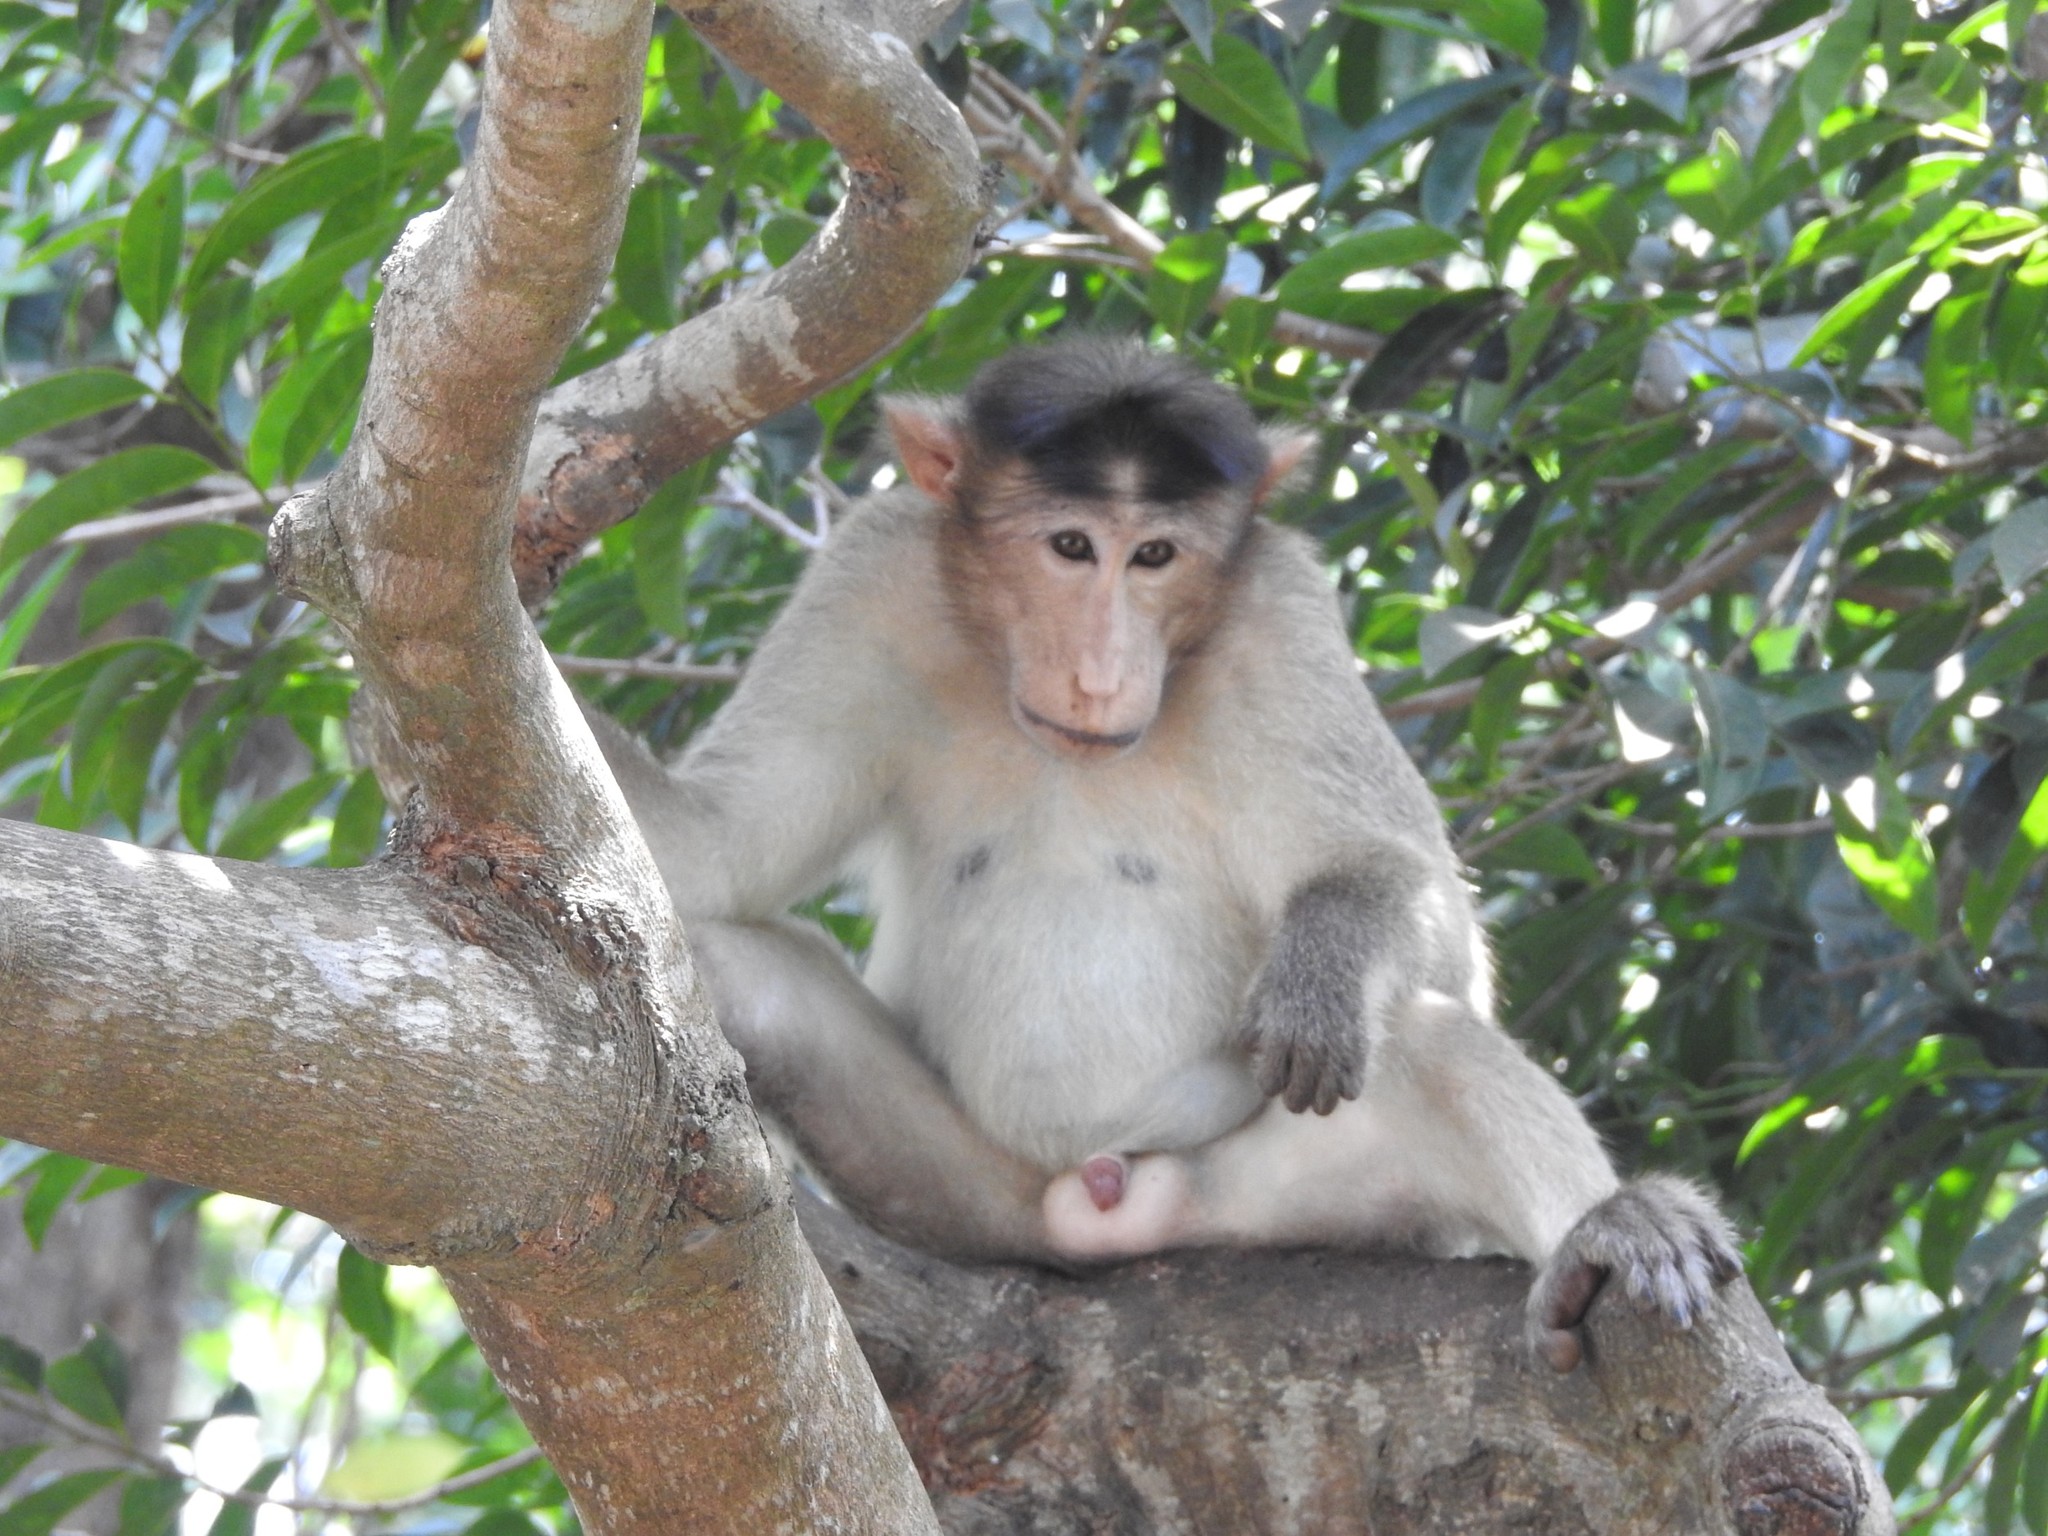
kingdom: Animalia
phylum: Chordata
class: Mammalia
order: Primates
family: Cercopithecidae
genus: Macaca
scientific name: Macaca radiata
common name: Bonnet macaque
